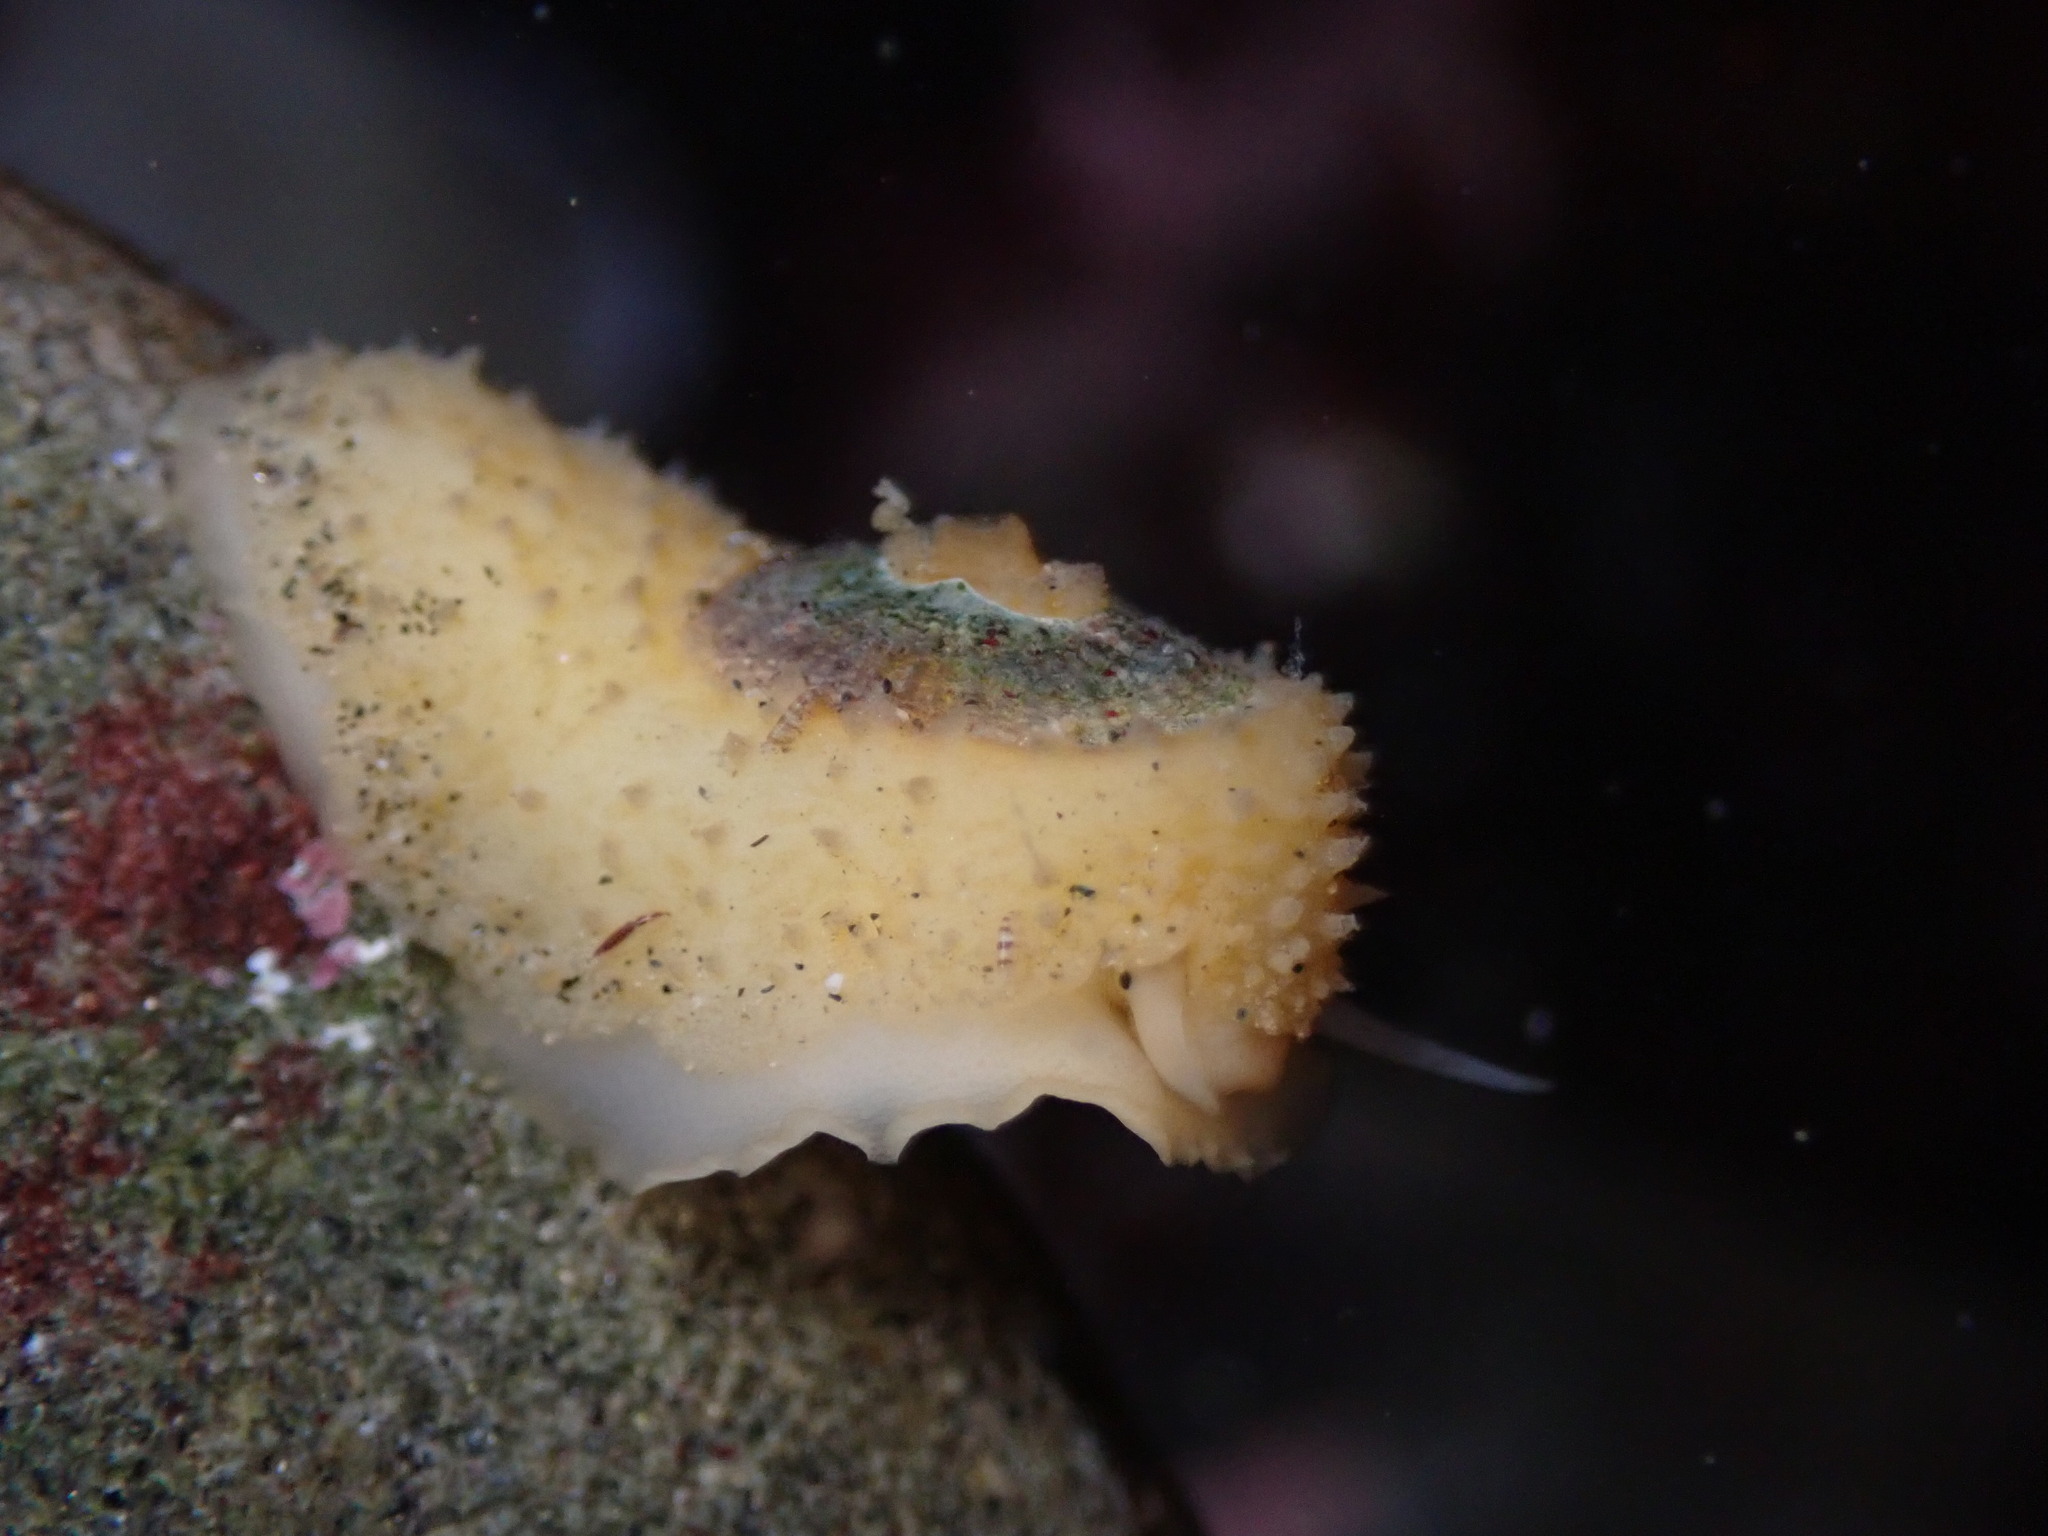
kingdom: Animalia
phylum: Mollusca
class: Gastropoda
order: Lepetellida
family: Fissurellidae
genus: Fissurellidea
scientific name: Fissurellidea bimaculata
